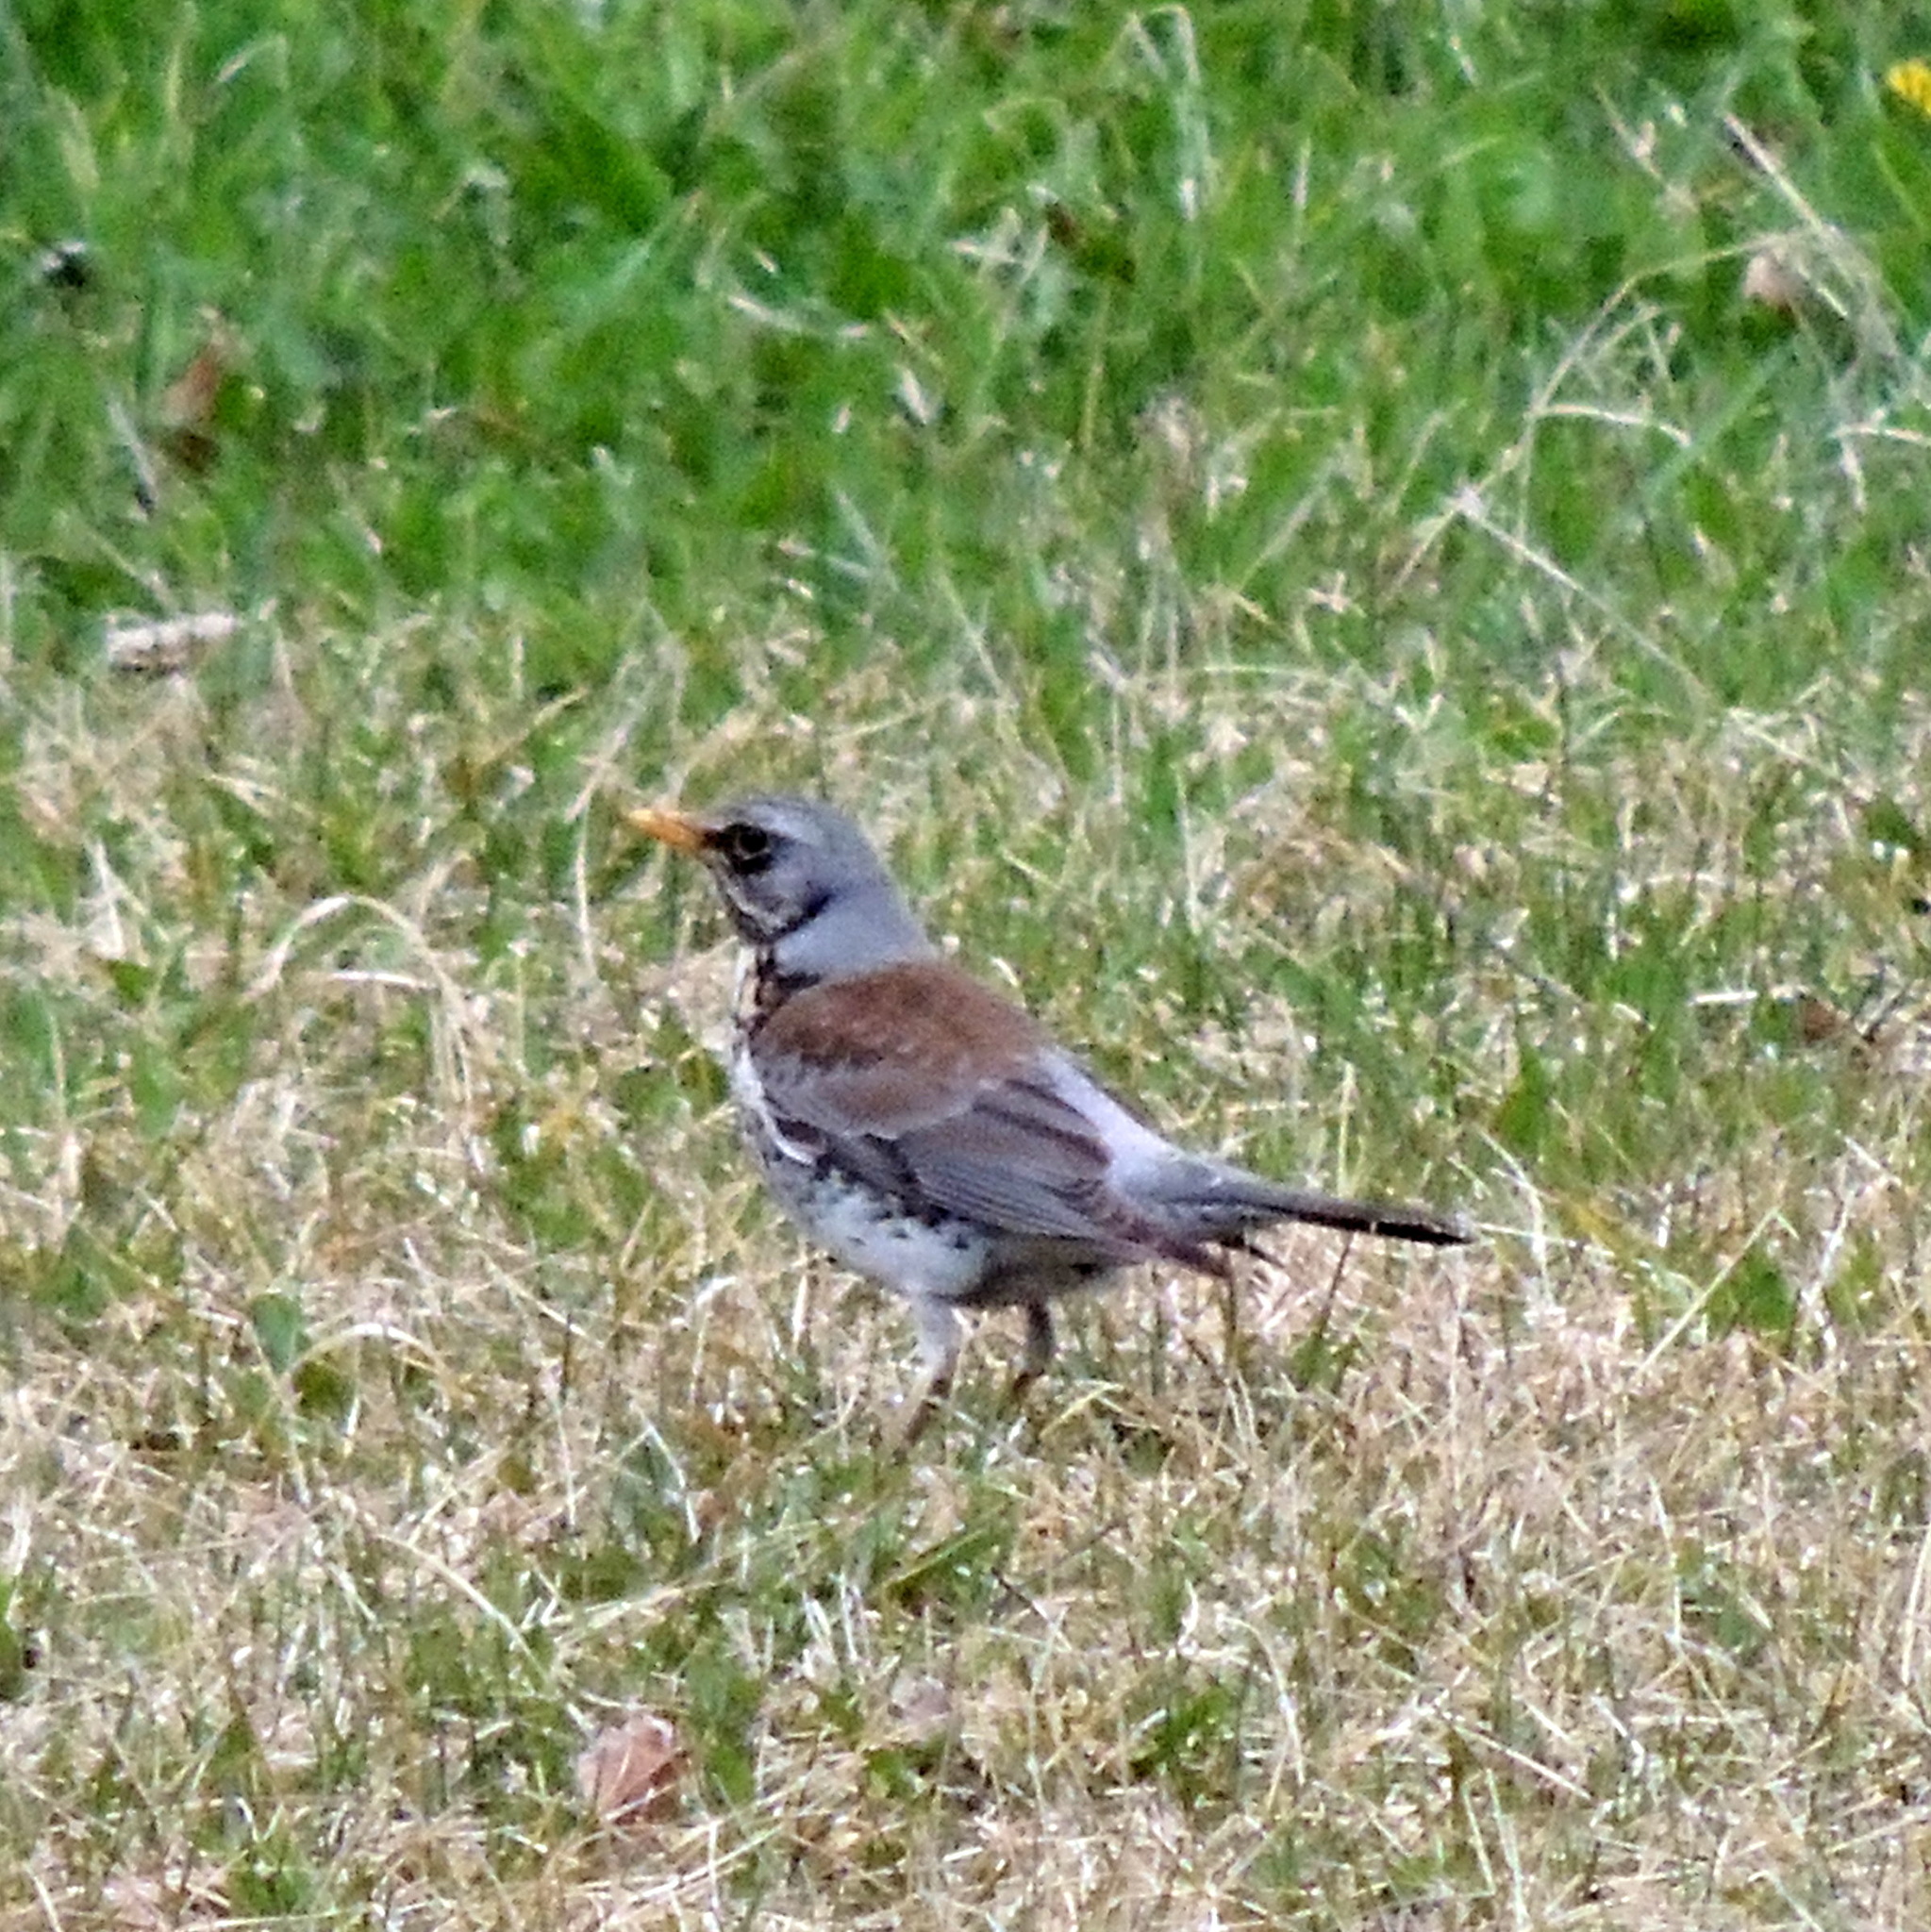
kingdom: Animalia
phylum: Chordata
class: Aves
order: Passeriformes
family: Turdidae
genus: Turdus
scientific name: Turdus pilaris
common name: Fieldfare
